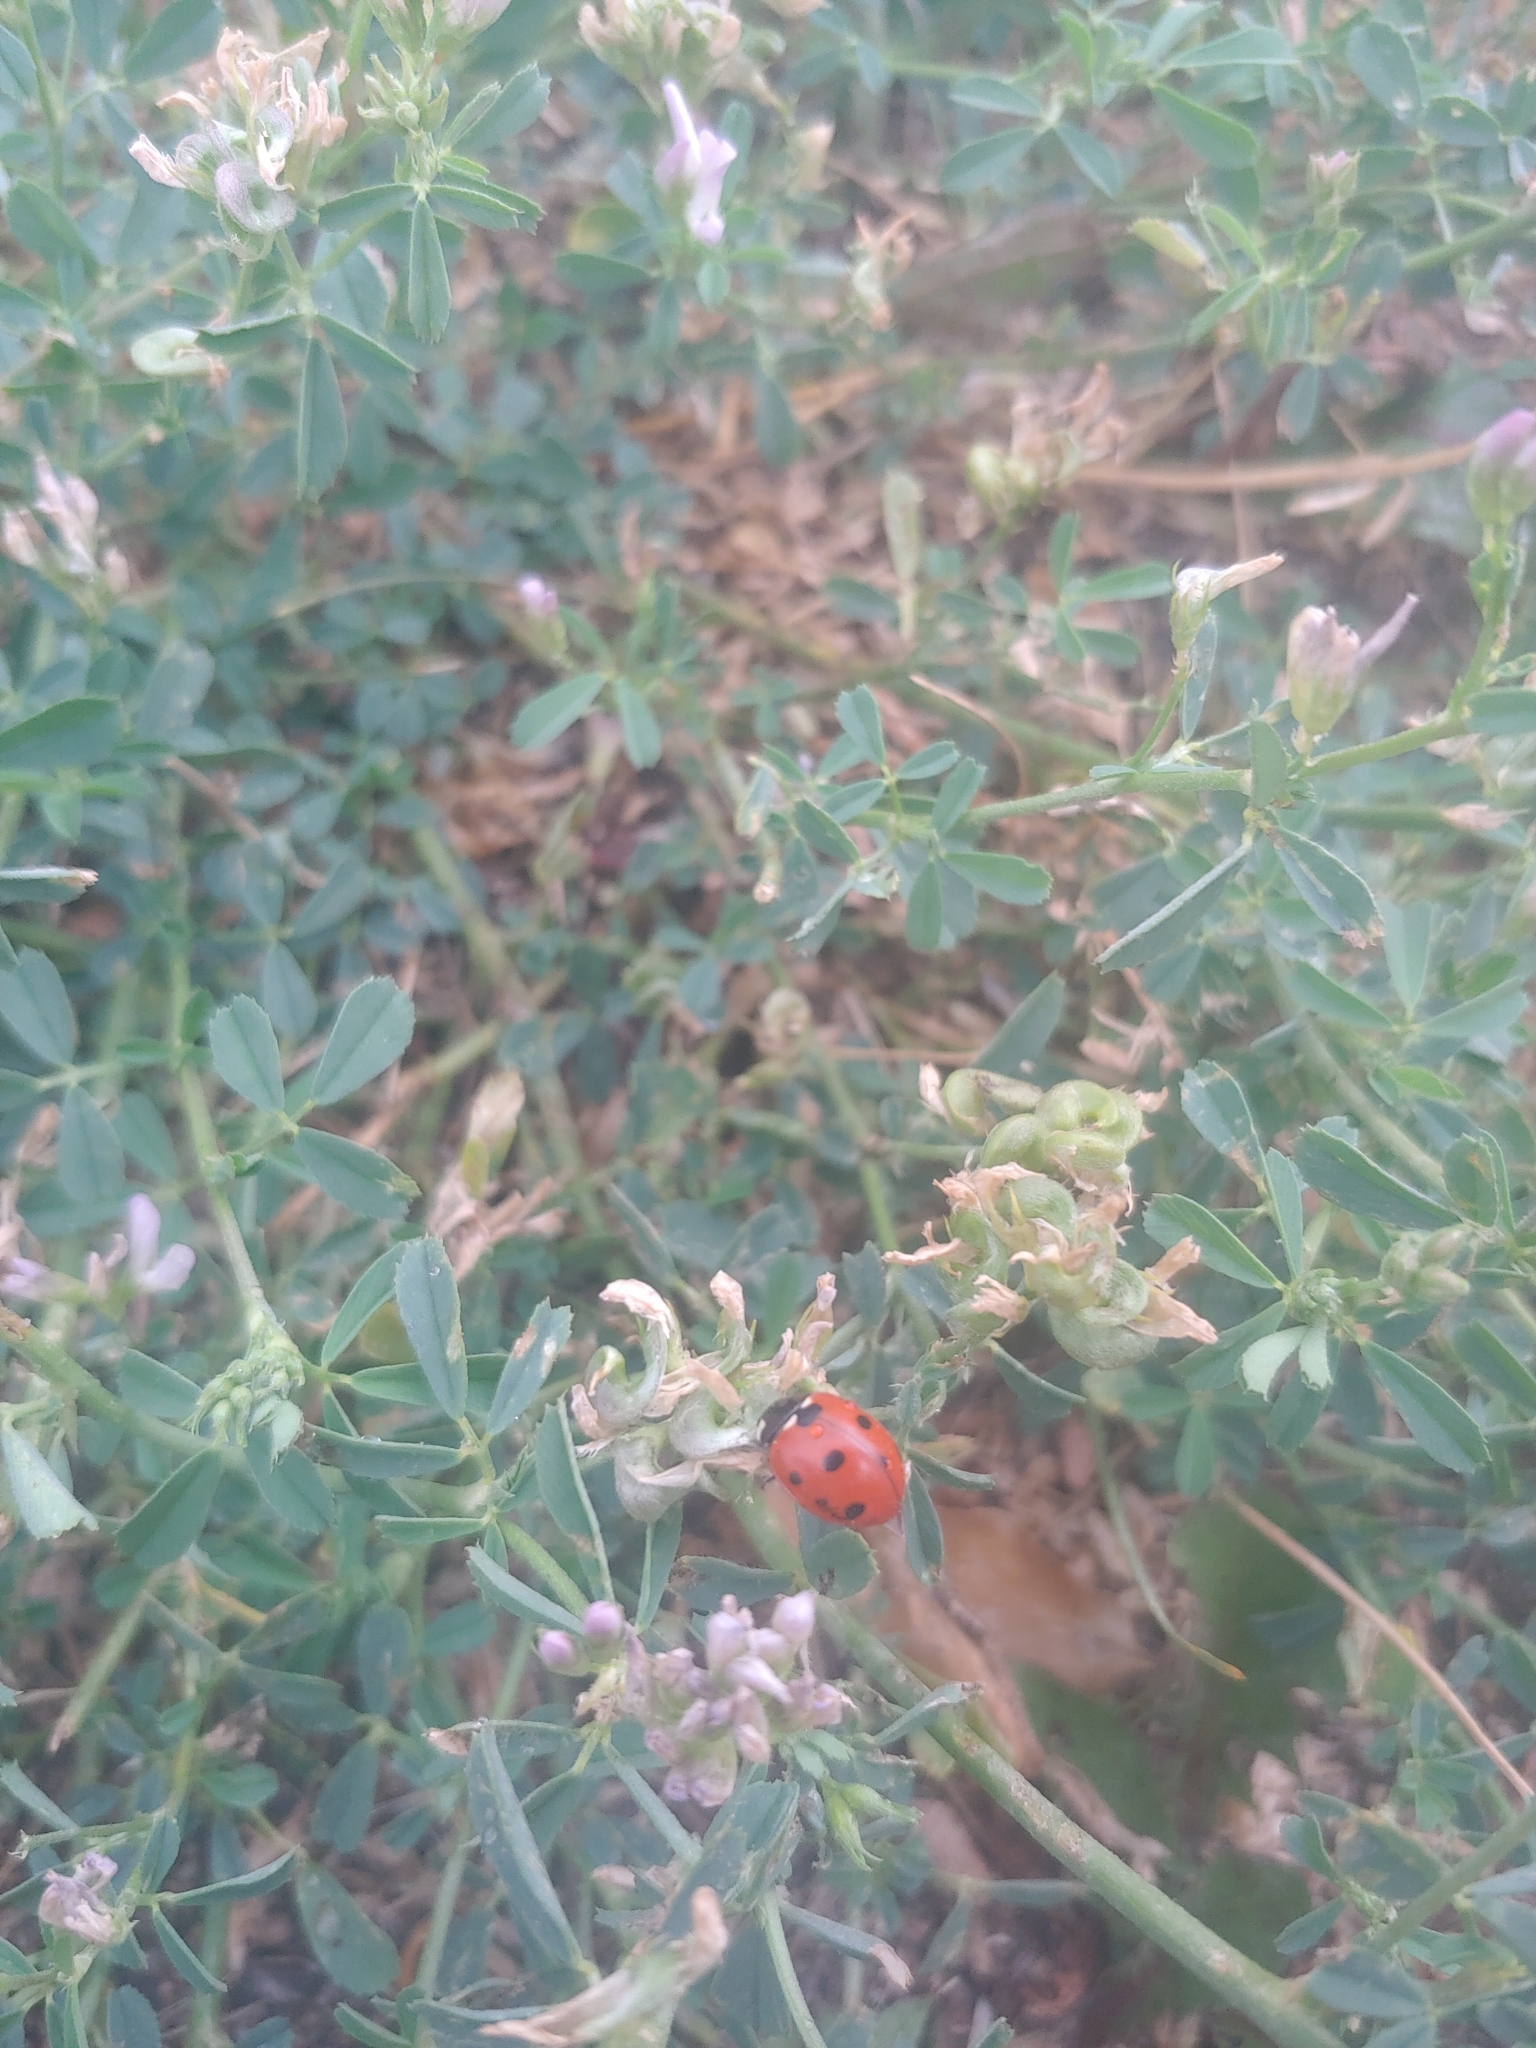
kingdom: Animalia
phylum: Arthropoda
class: Insecta
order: Coleoptera
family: Coccinellidae
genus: Coccinella
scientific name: Coccinella septempunctata
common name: Sevenspotted lady beetle
